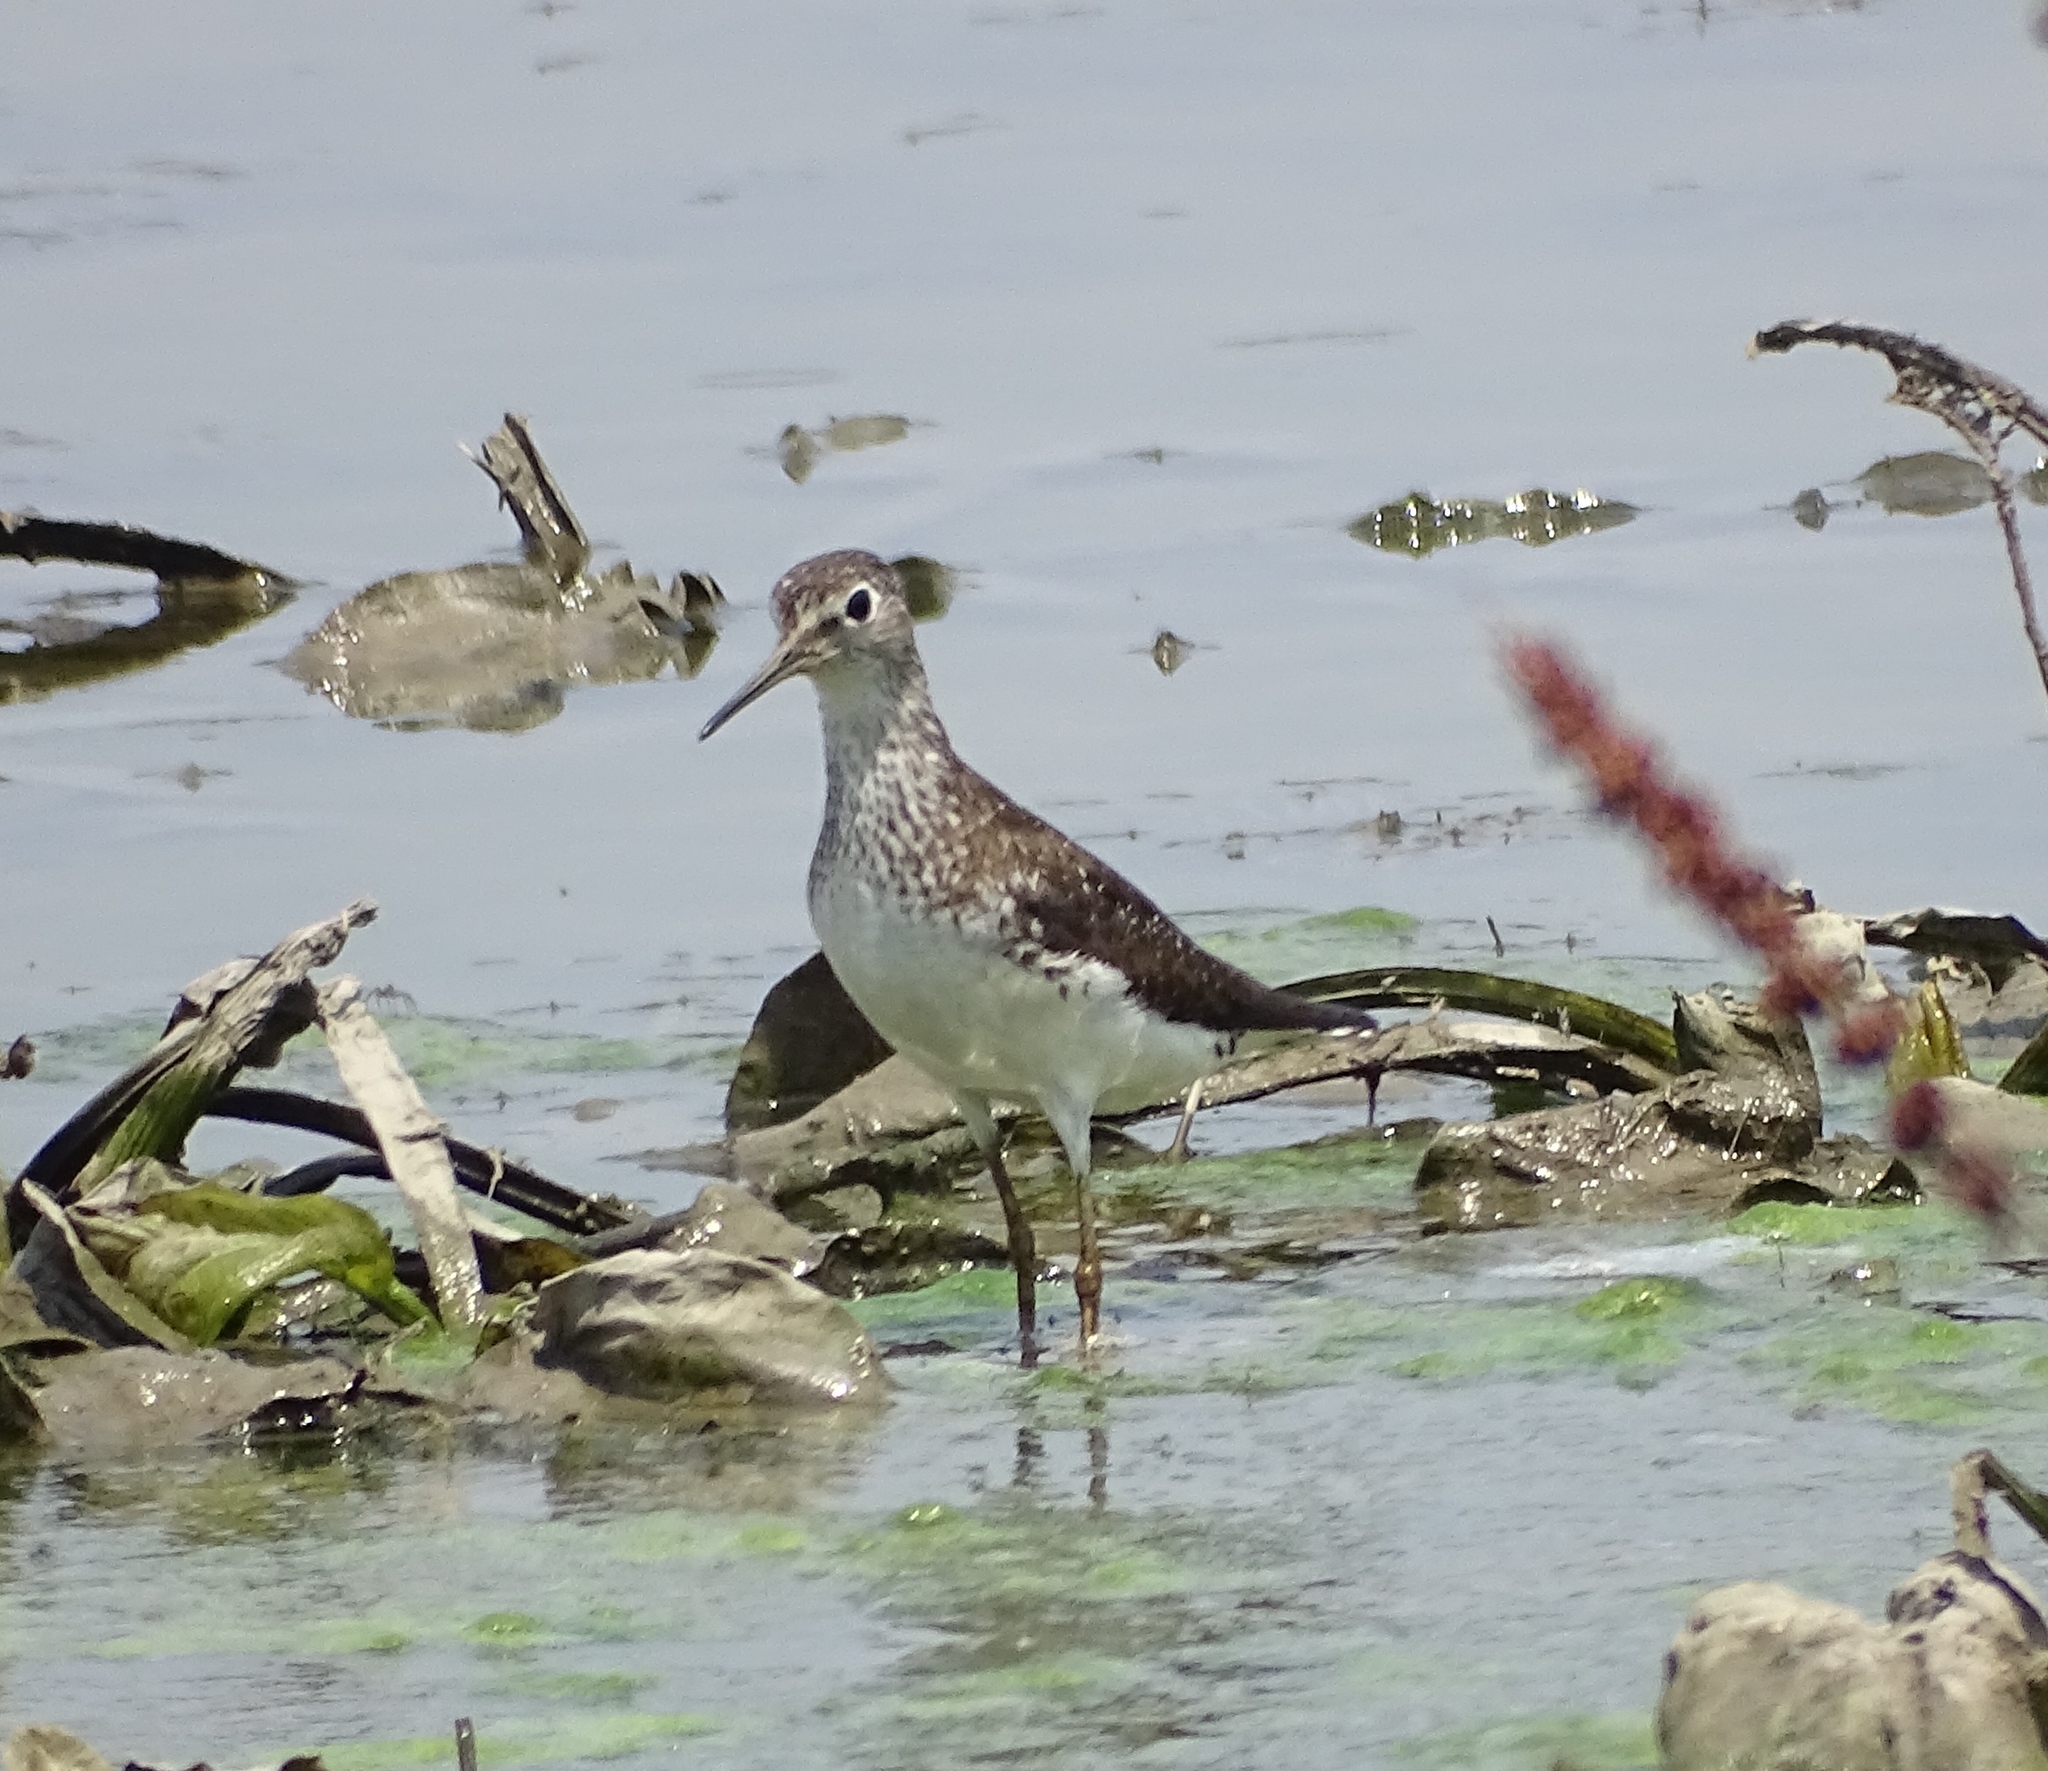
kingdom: Animalia
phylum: Chordata
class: Aves
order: Charadriiformes
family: Scolopacidae
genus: Tringa
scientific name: Tringa solitaria
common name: Solitary sandpiper
